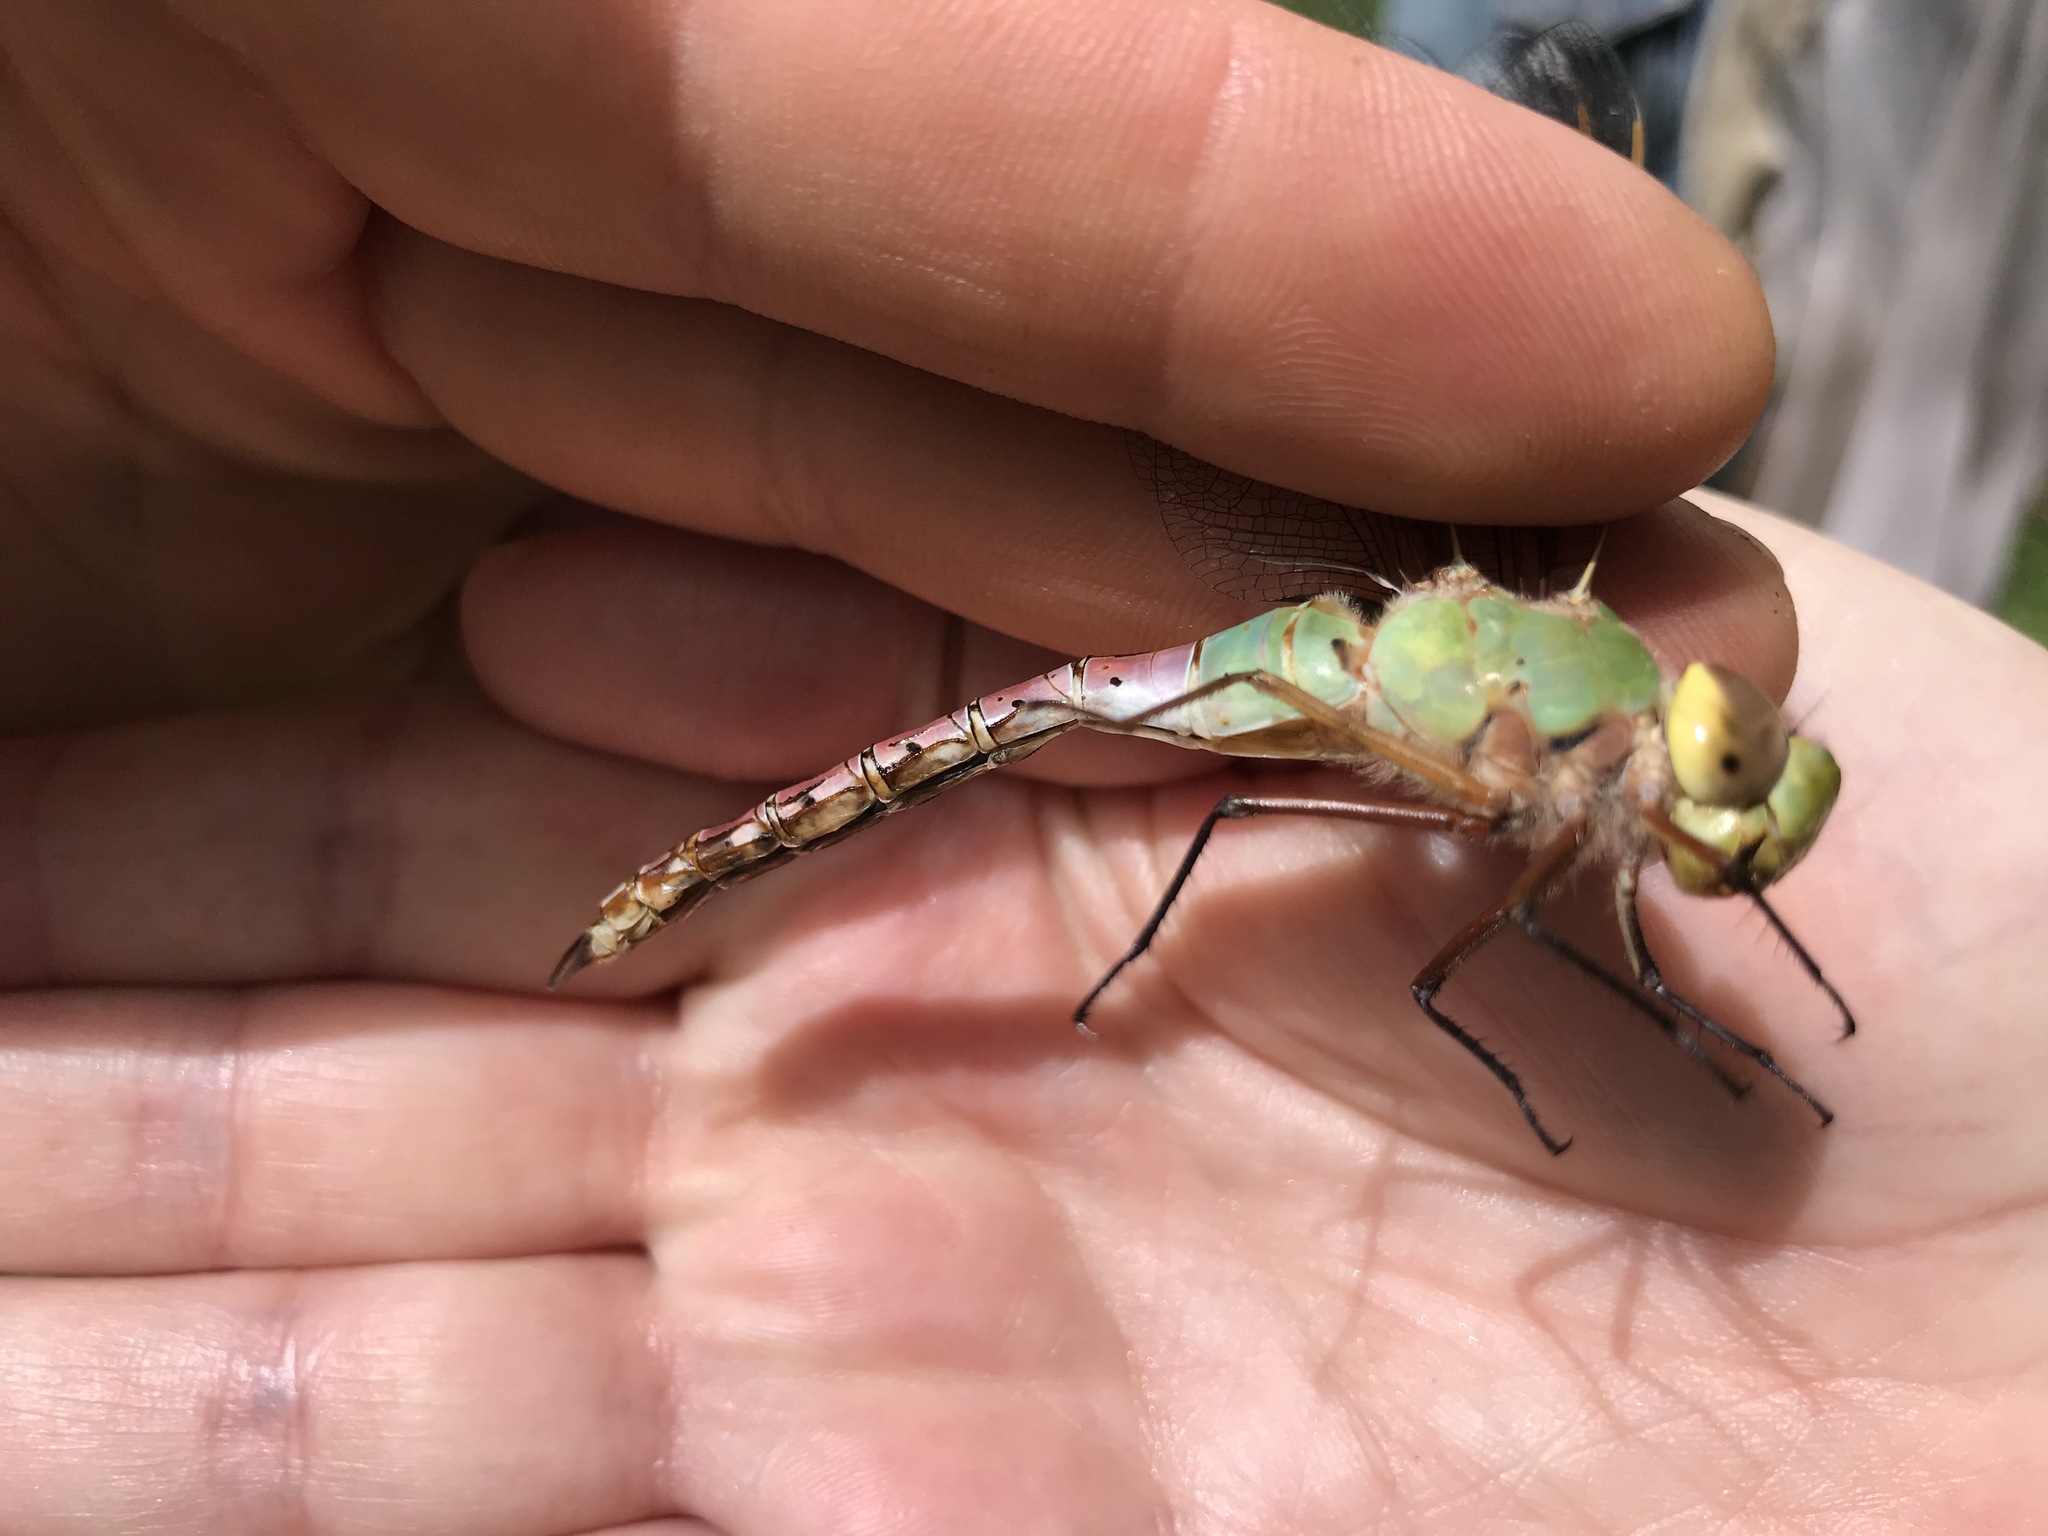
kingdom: Animalia
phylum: Arthropoda
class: Insecta
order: Odonata
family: Aeshnidae
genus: Anax
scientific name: Anax junius
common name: Common green darner
